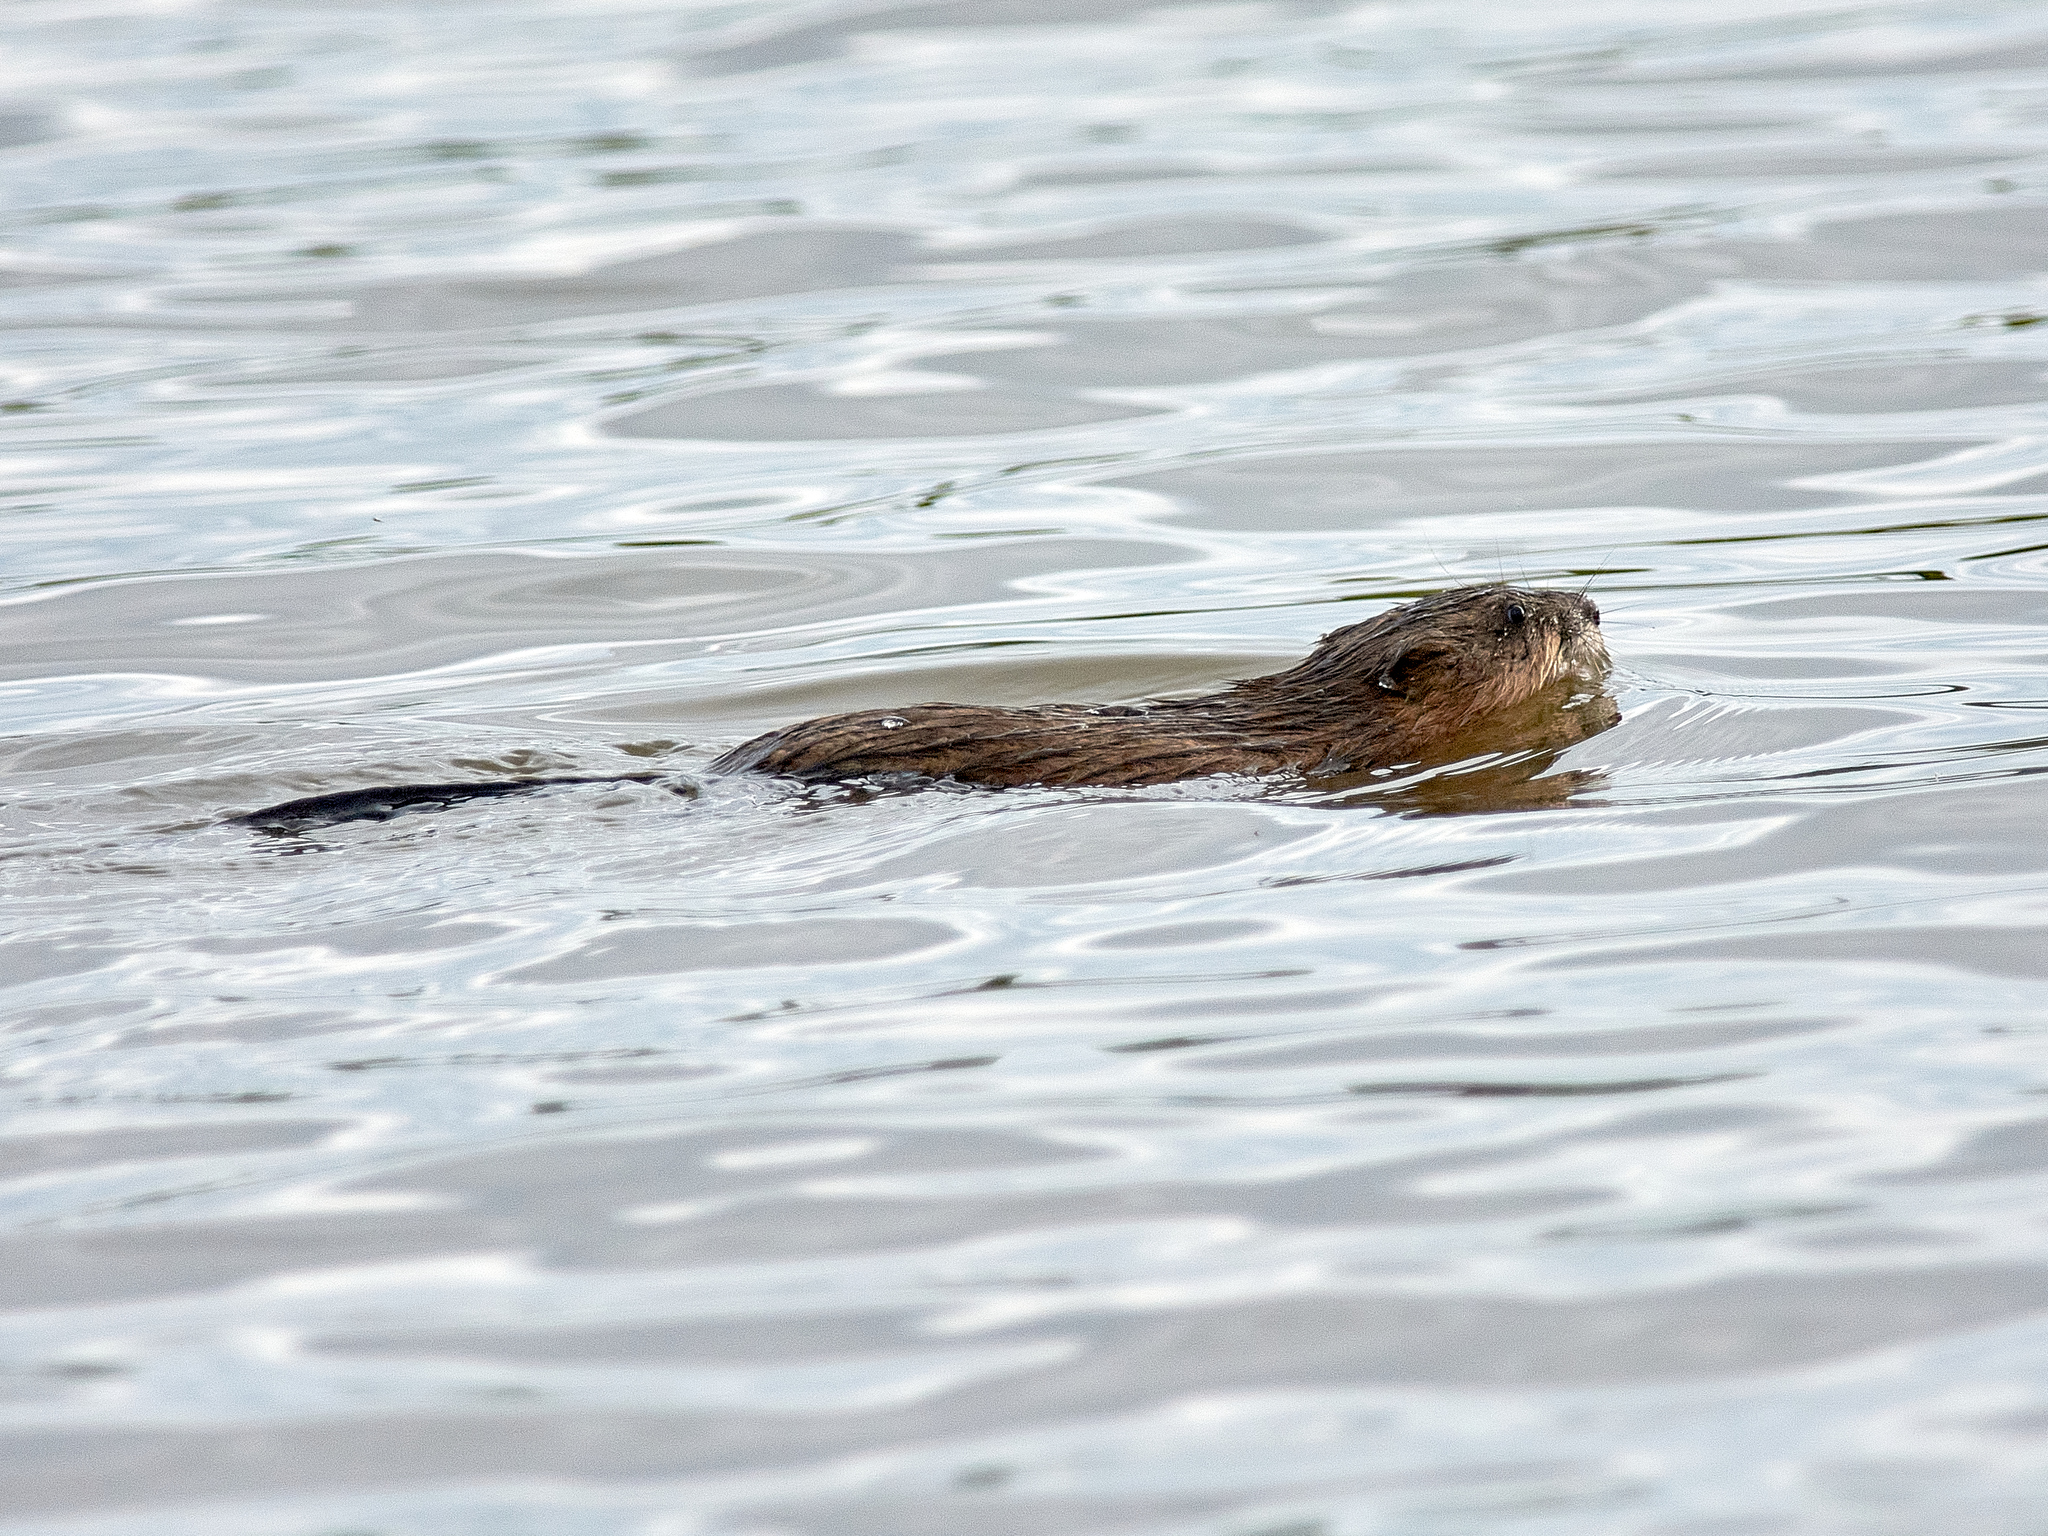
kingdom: Animalia
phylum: Chordata
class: Mammalia
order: Rodentia
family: Cricetidae
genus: Ondatra
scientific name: Ondatra zibethicus
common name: Muskrat
